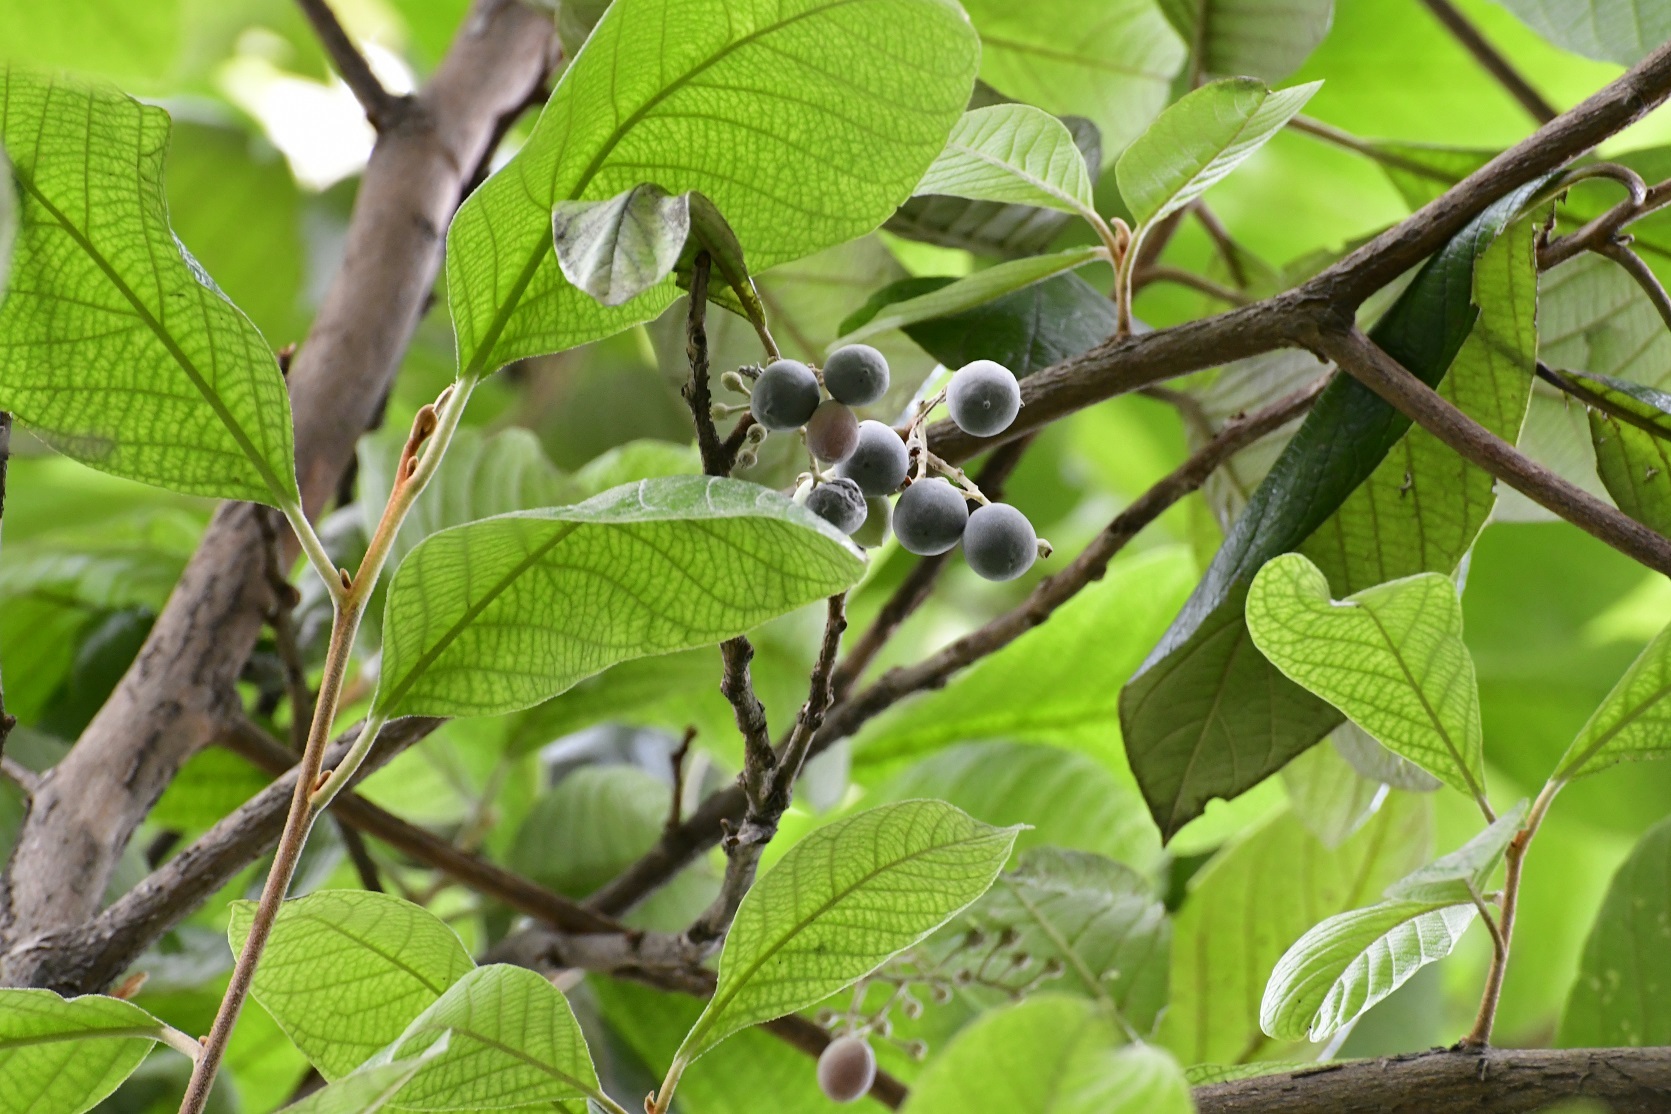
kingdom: Plantae
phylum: Tracheophyta
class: Magnoliopsida
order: Ericales
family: Styracaceae
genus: Styrax
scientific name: Styrax magnus
